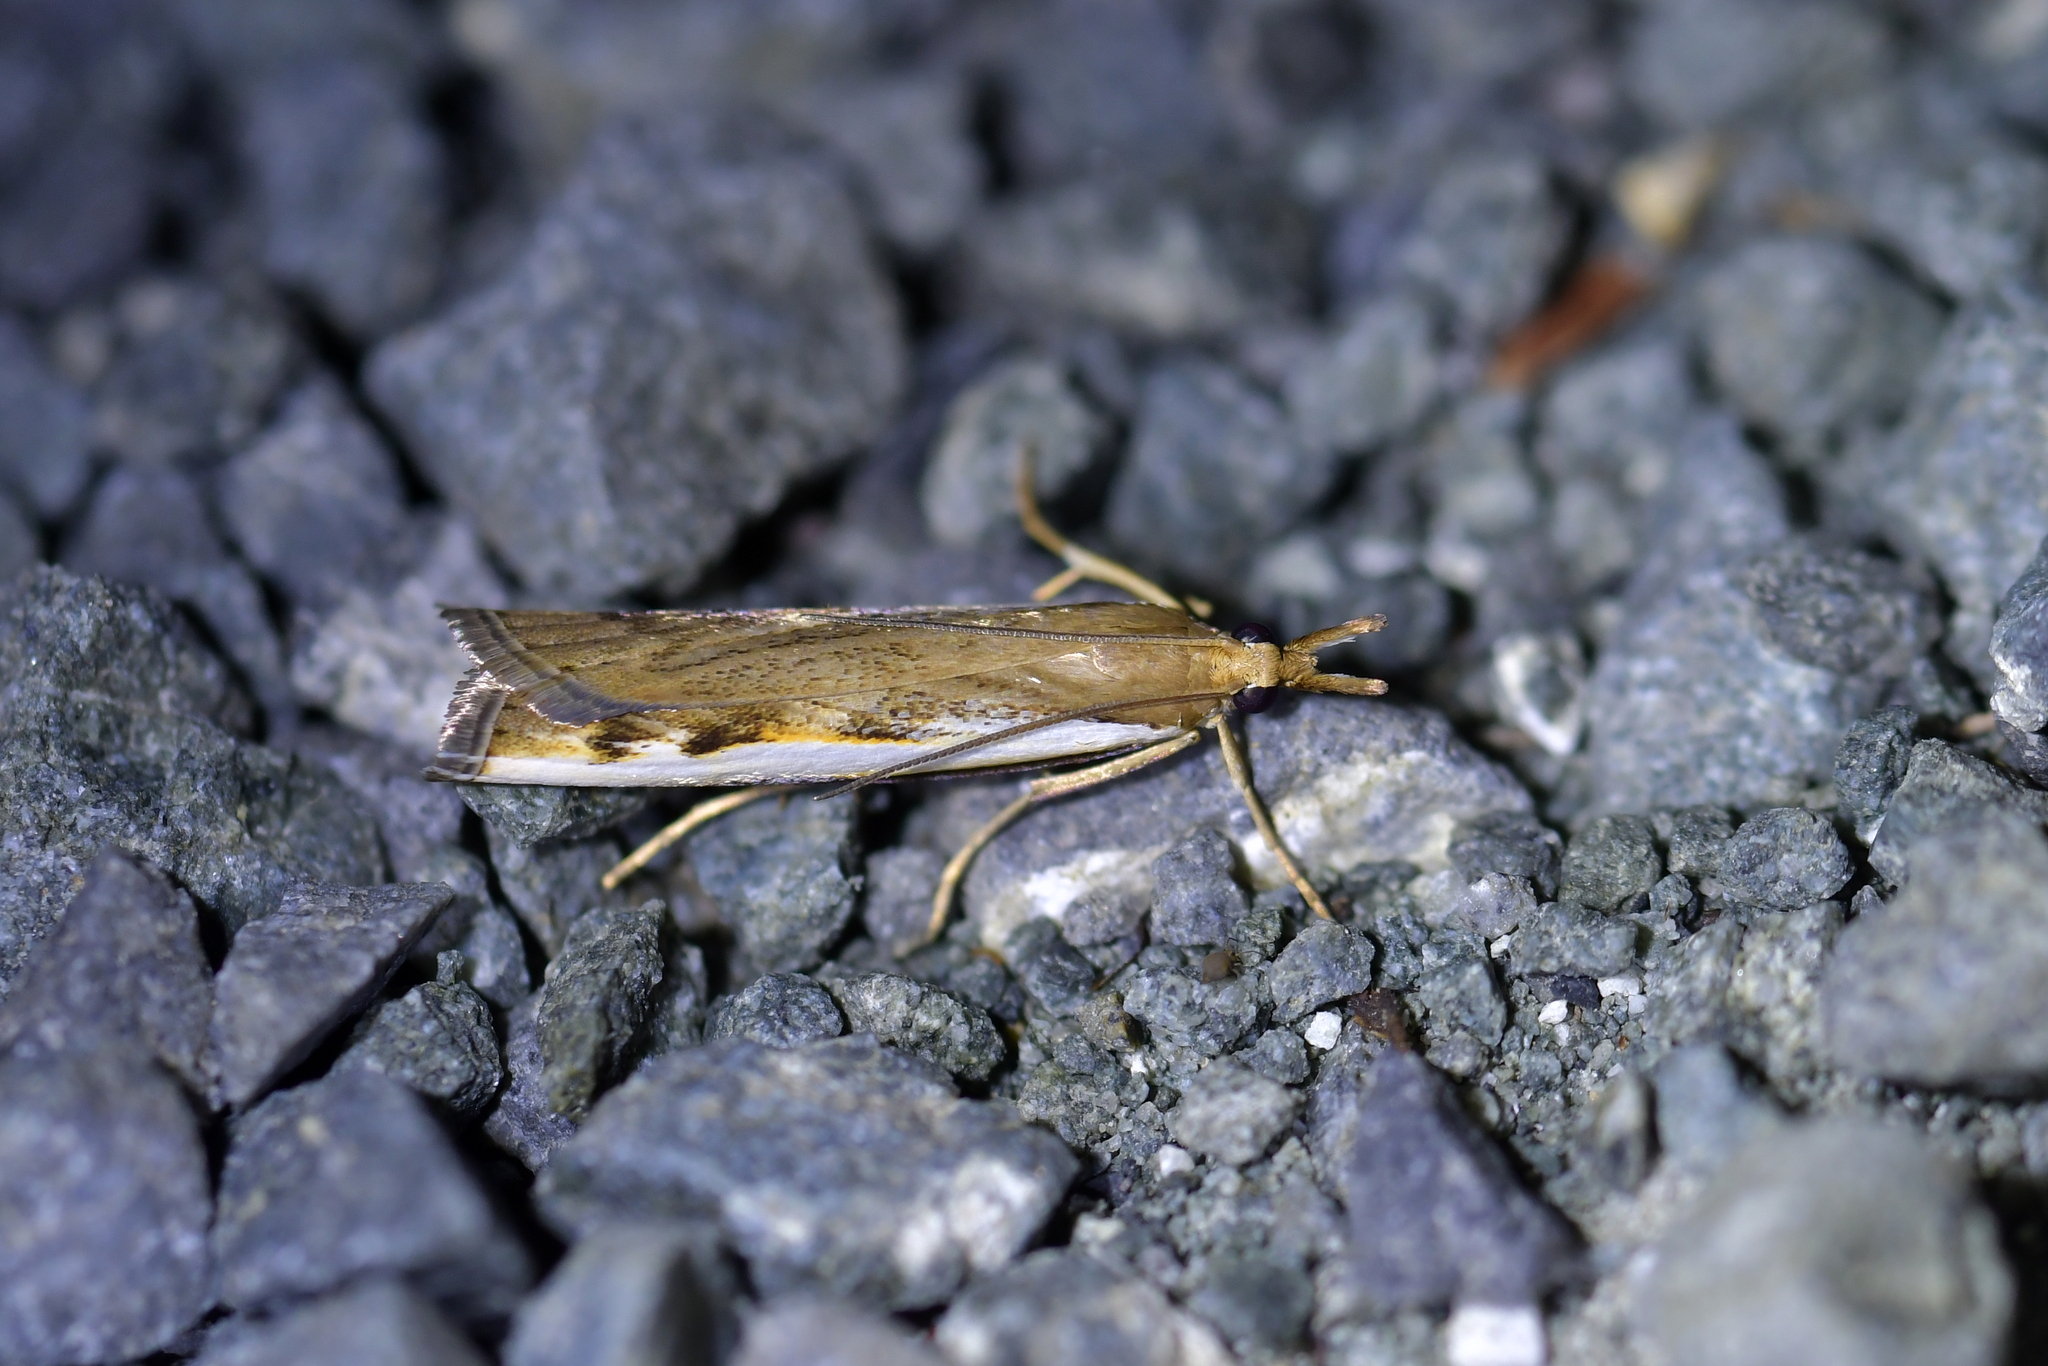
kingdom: Animalia
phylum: Arthropoda
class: Insecta
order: Lepidoptera
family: Crambidae
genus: Orocrambus
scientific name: Orocrambus flexuosellus
